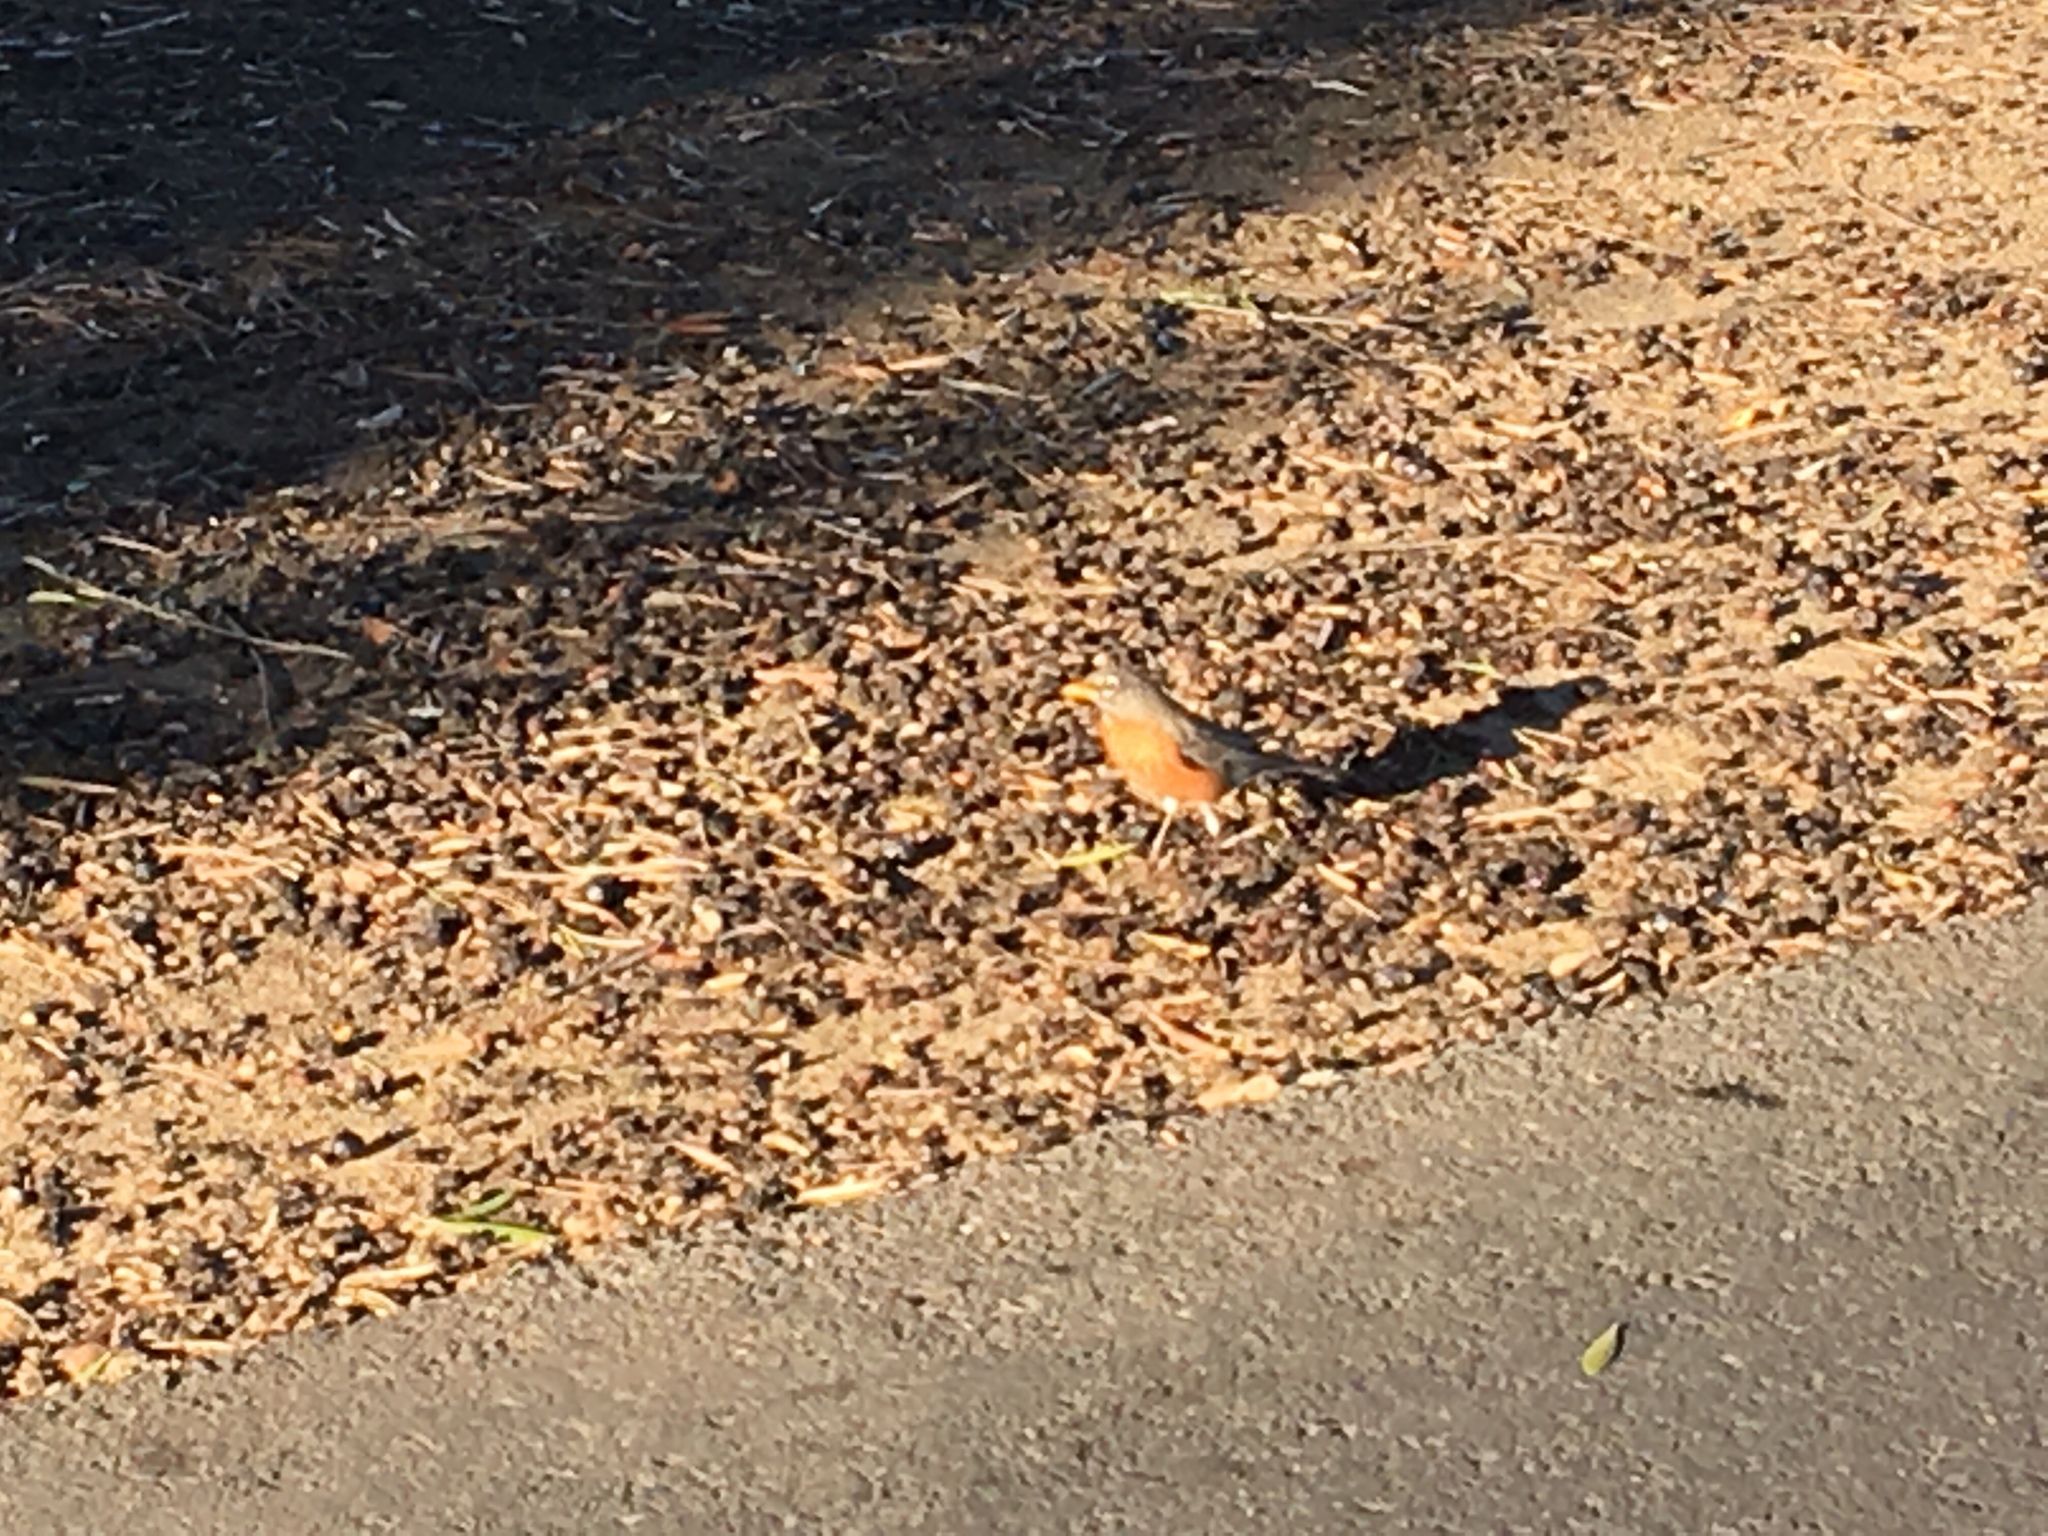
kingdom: Animalia
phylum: Chordata
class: Aves
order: Passeriformes
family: Turdidae
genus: Turdus
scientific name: Turdus migratorius
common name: American robin
